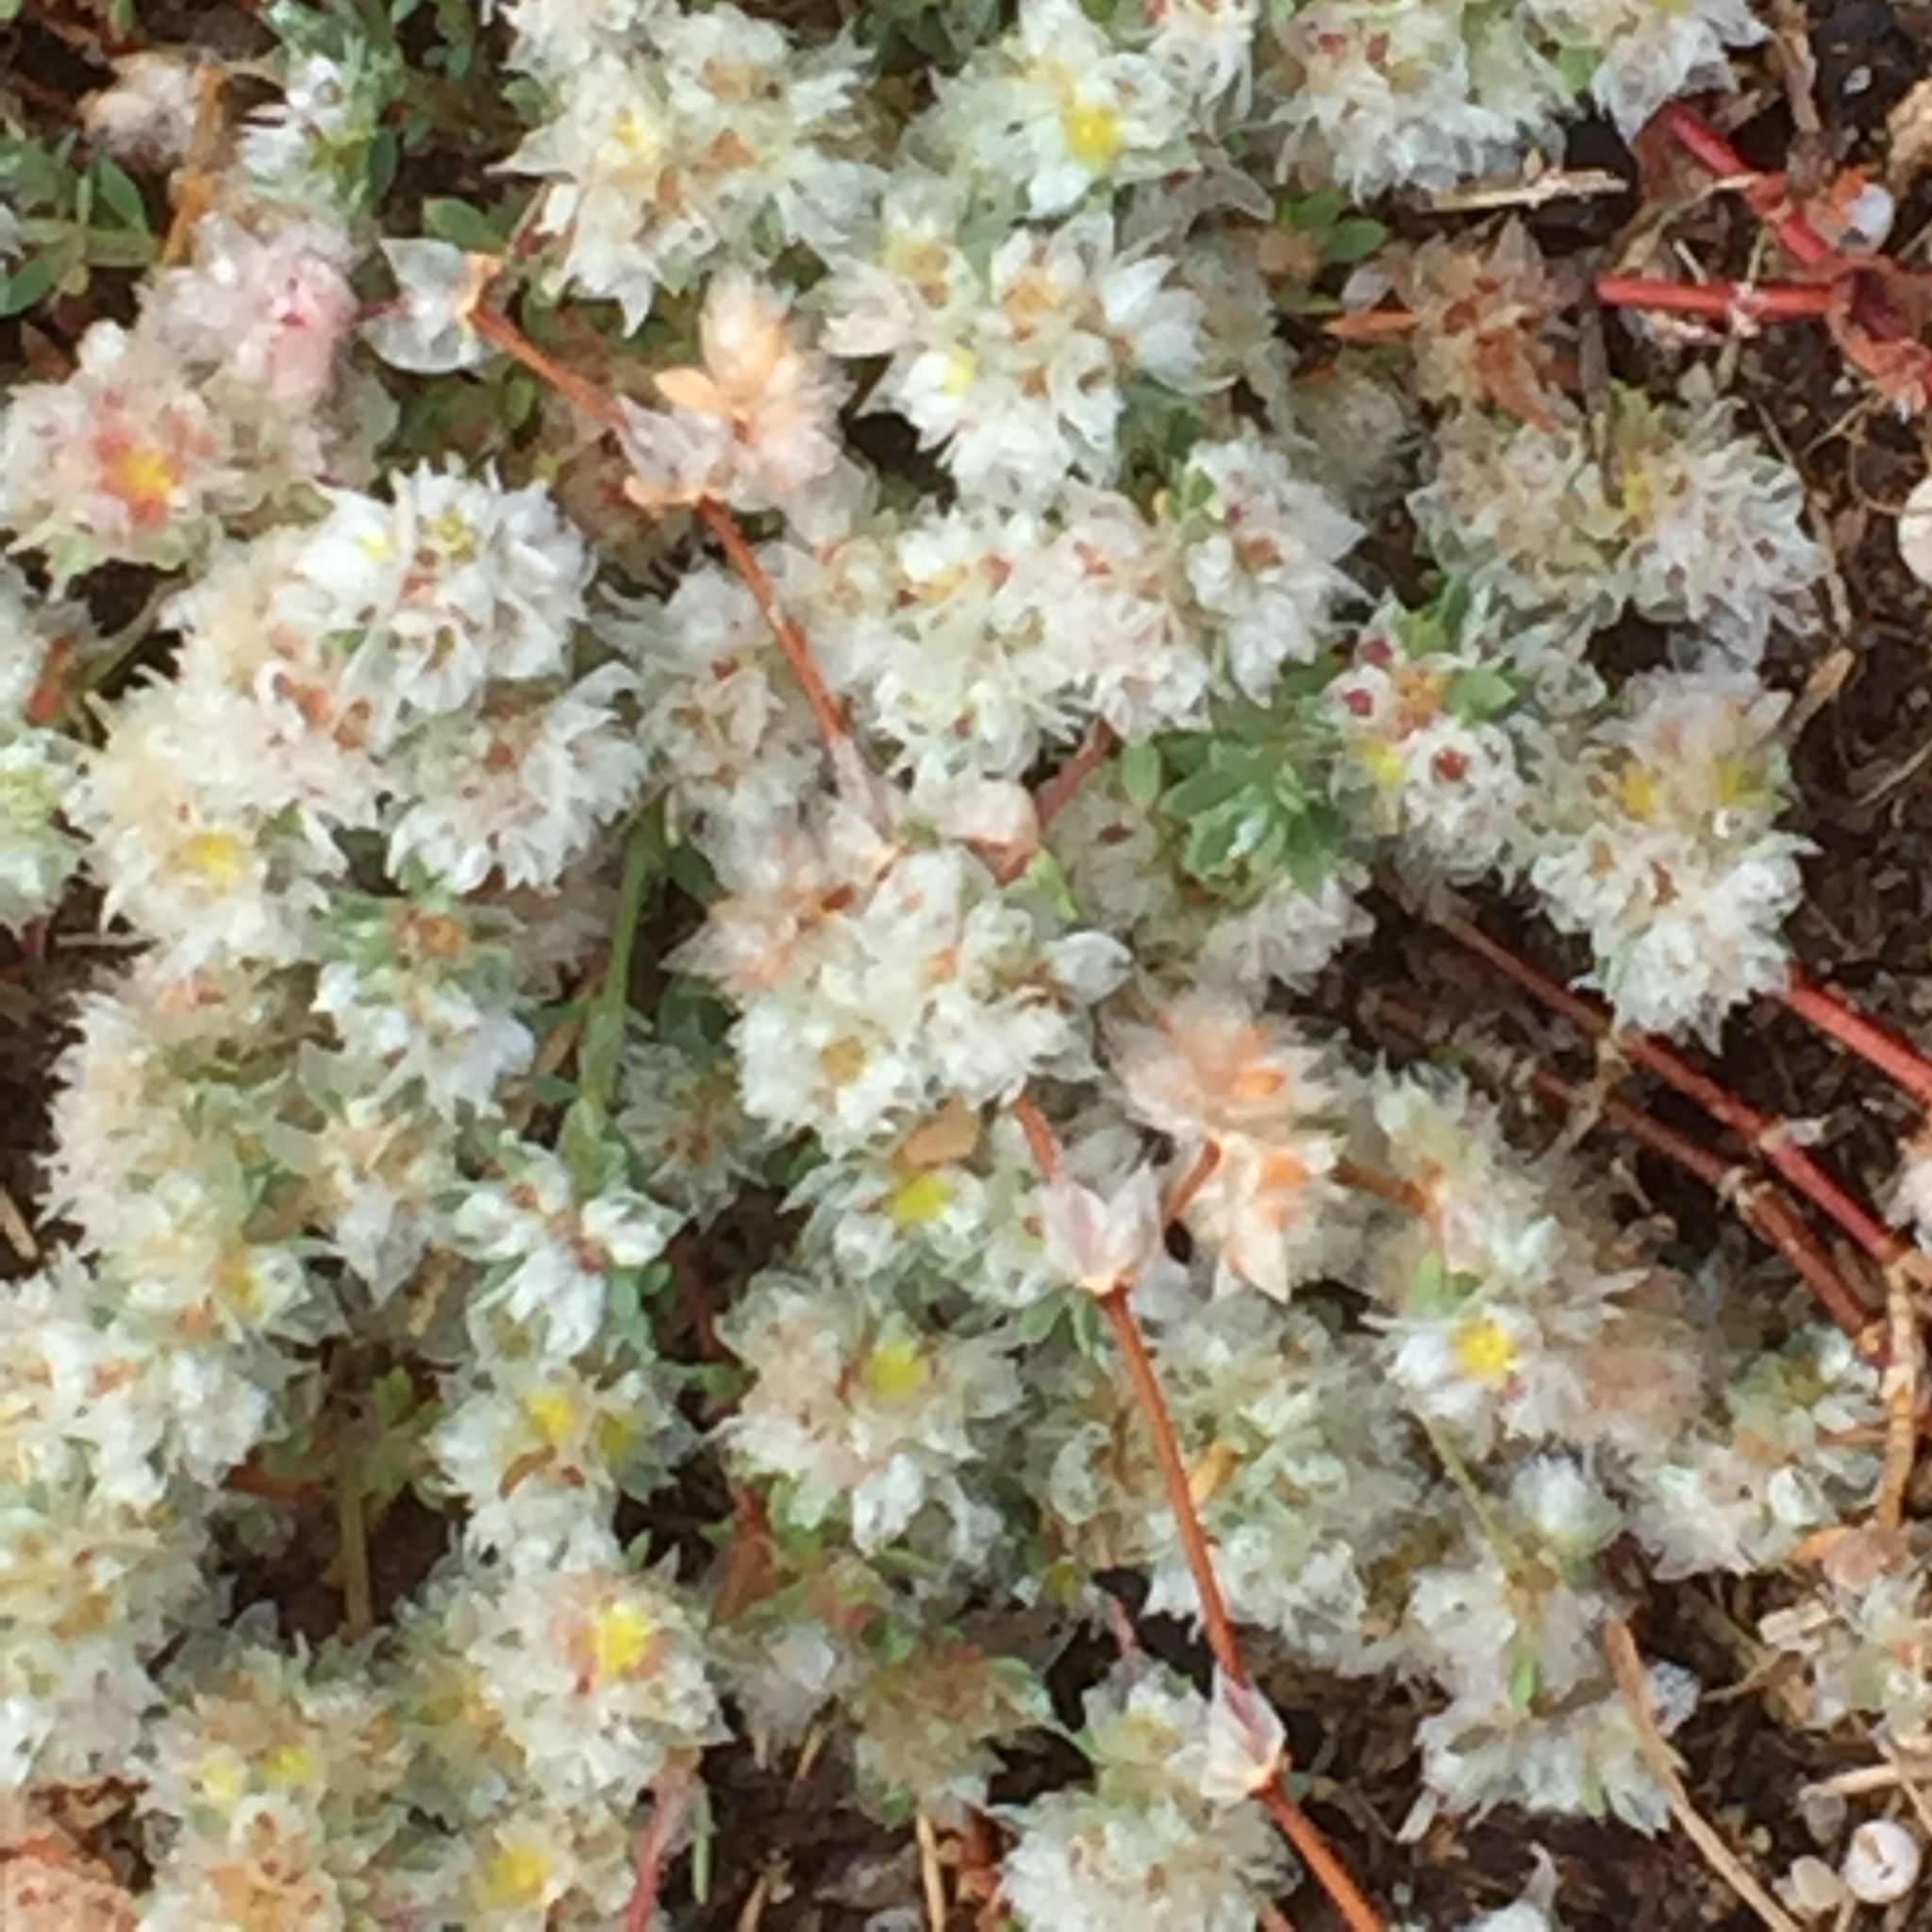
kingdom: Plantae
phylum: Tracheophyta
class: Magnoliopsida
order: Caryophyllales
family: Caryophyllaceae
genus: Paronychia
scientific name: Paronychia argentea
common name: Silver nailroot
